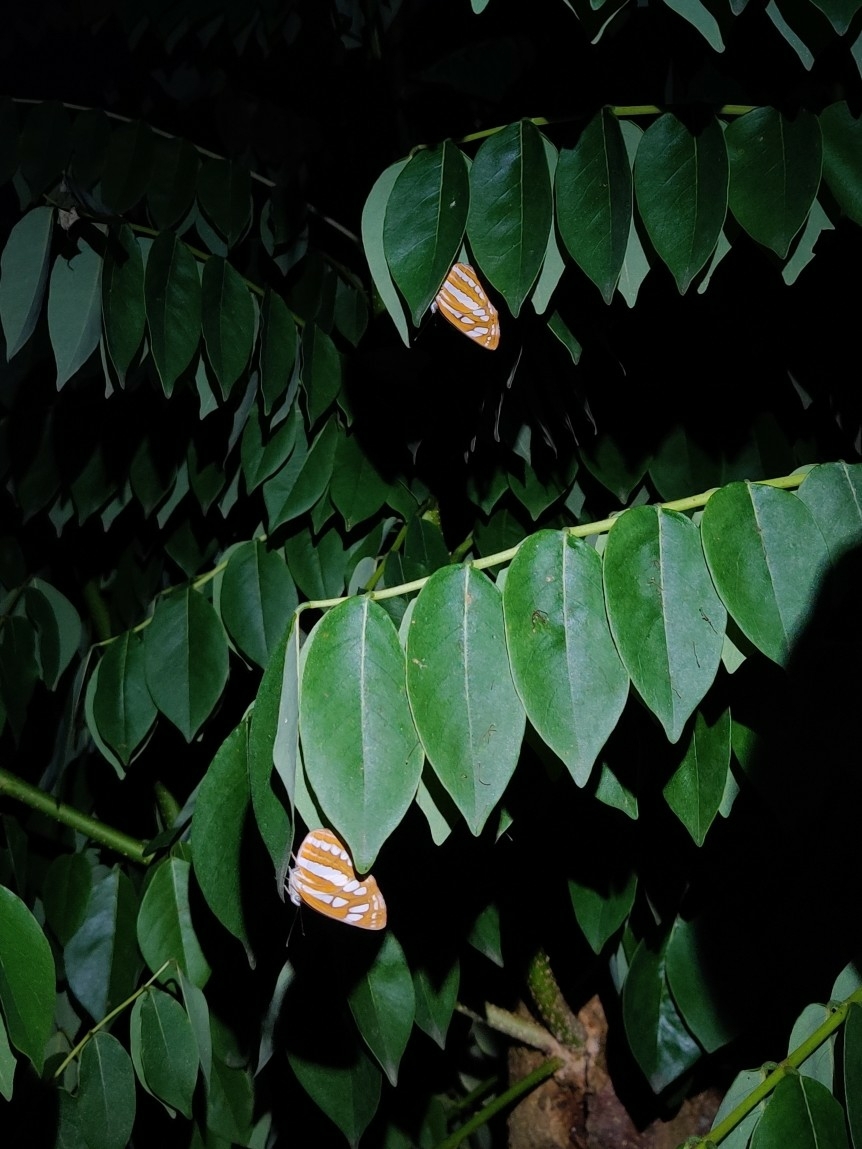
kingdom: Animalia
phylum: Arthropoda
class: Insecta
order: Lepidoptera
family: Nymphalidae
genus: Neptis
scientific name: Neptis hylas
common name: Common sailer
